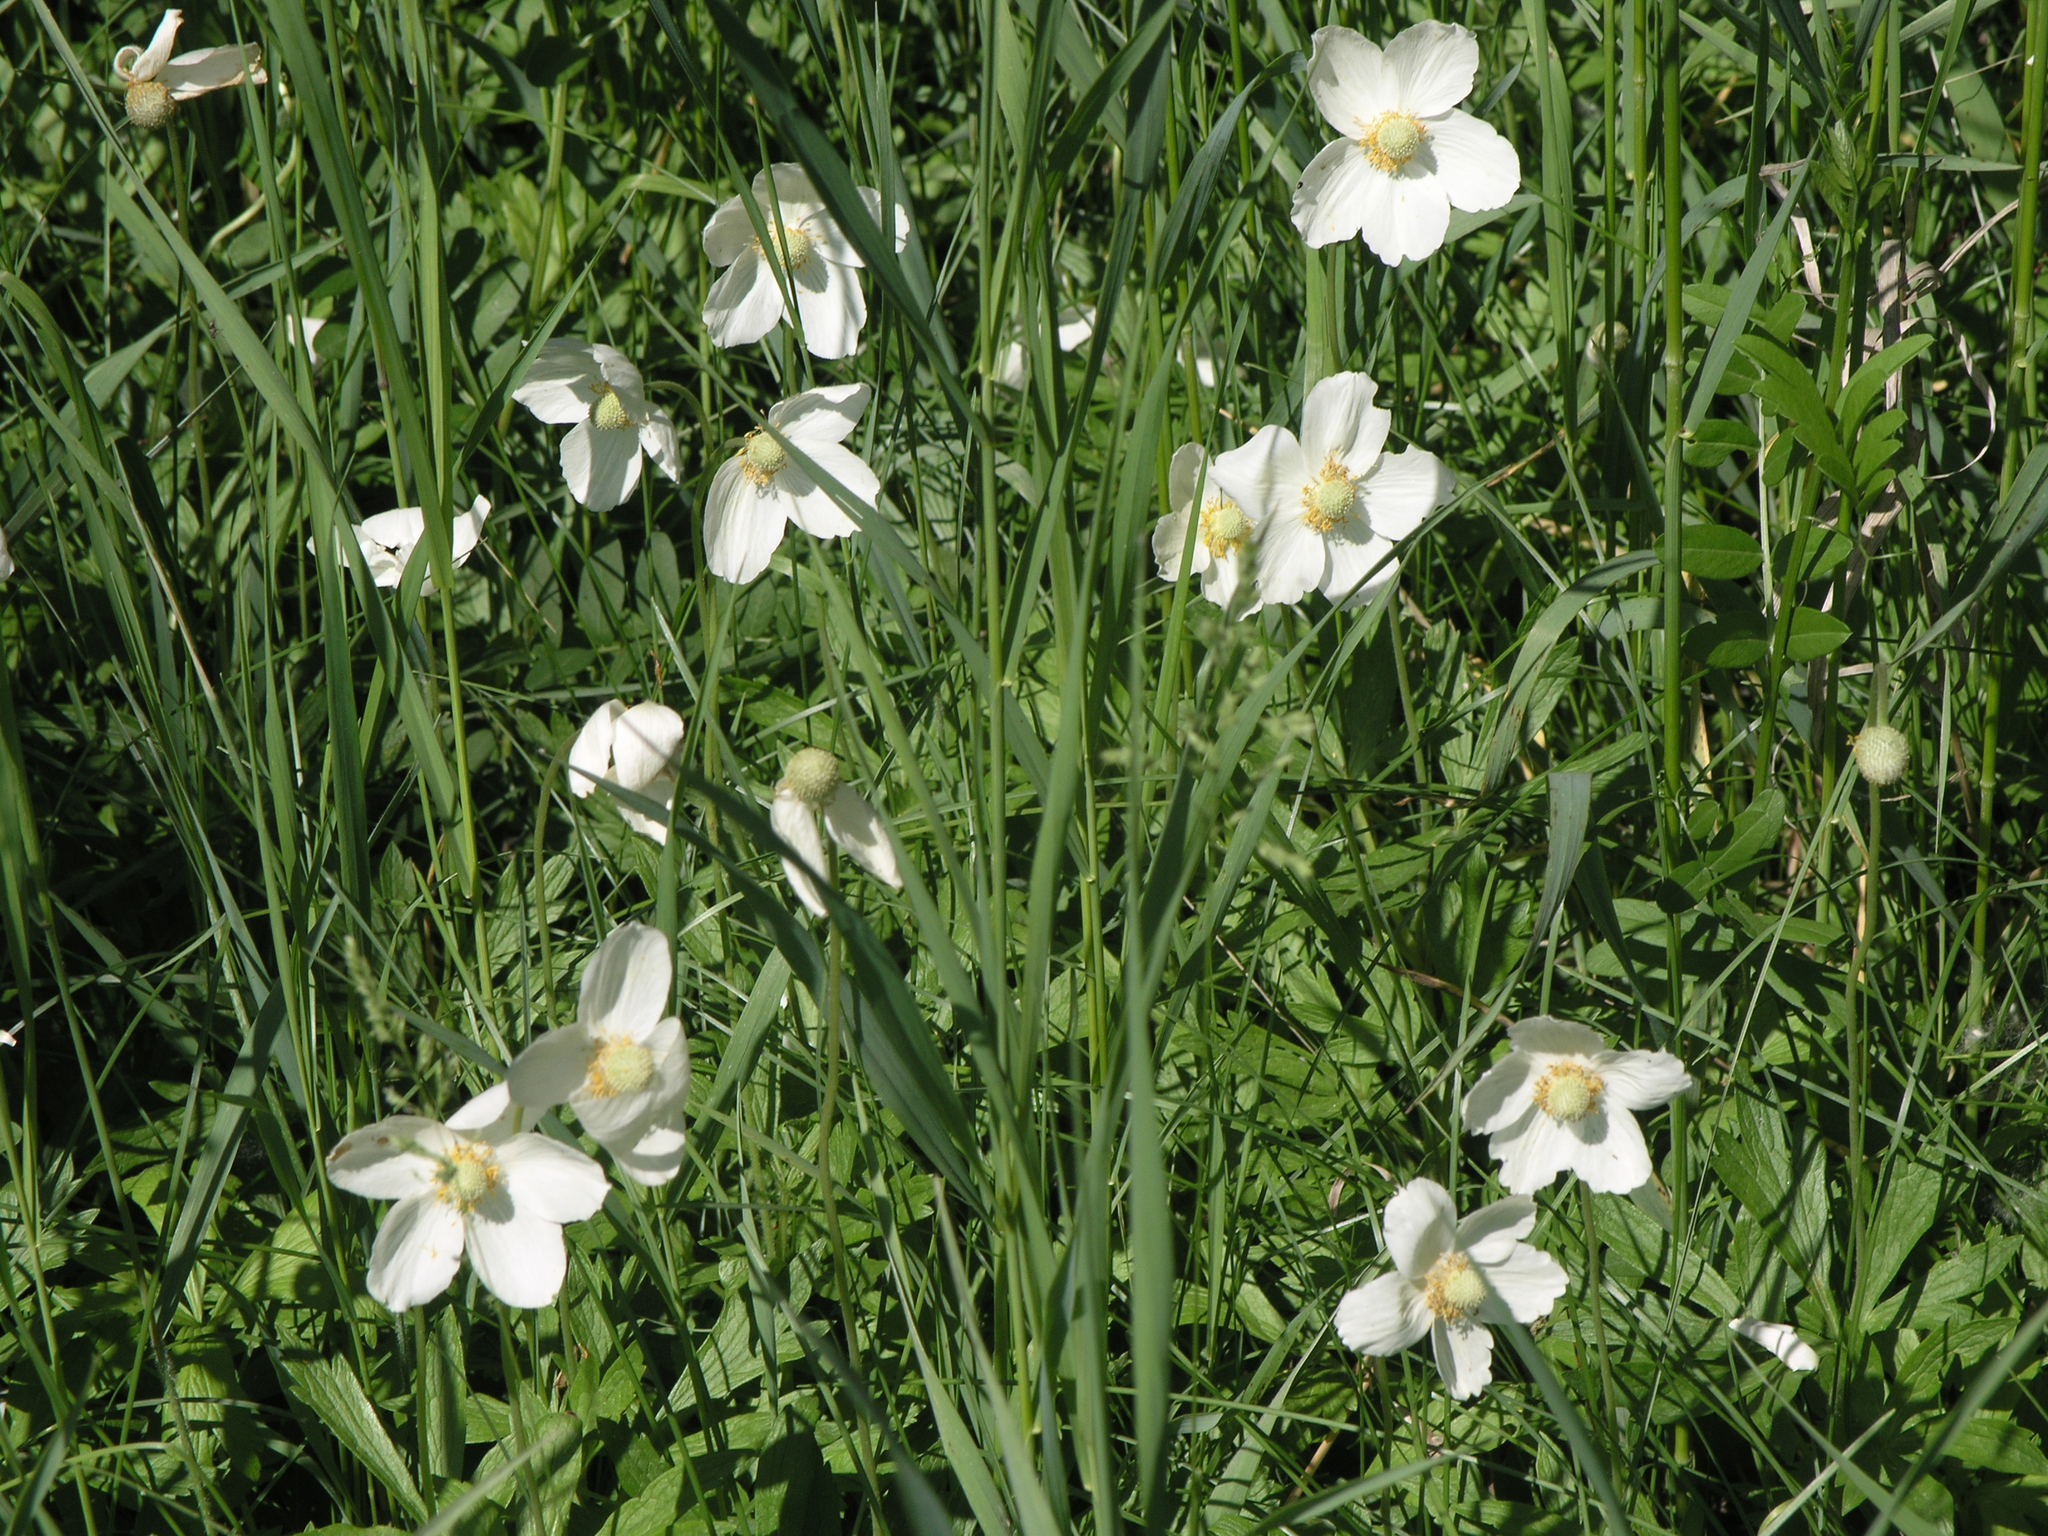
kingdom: Plantae
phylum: Tracheophyta
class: Magnoliopsida
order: Ranunculales
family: Ranunculaceae
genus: Anemone
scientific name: Anemone sylvestris
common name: Snowdrop anemone
